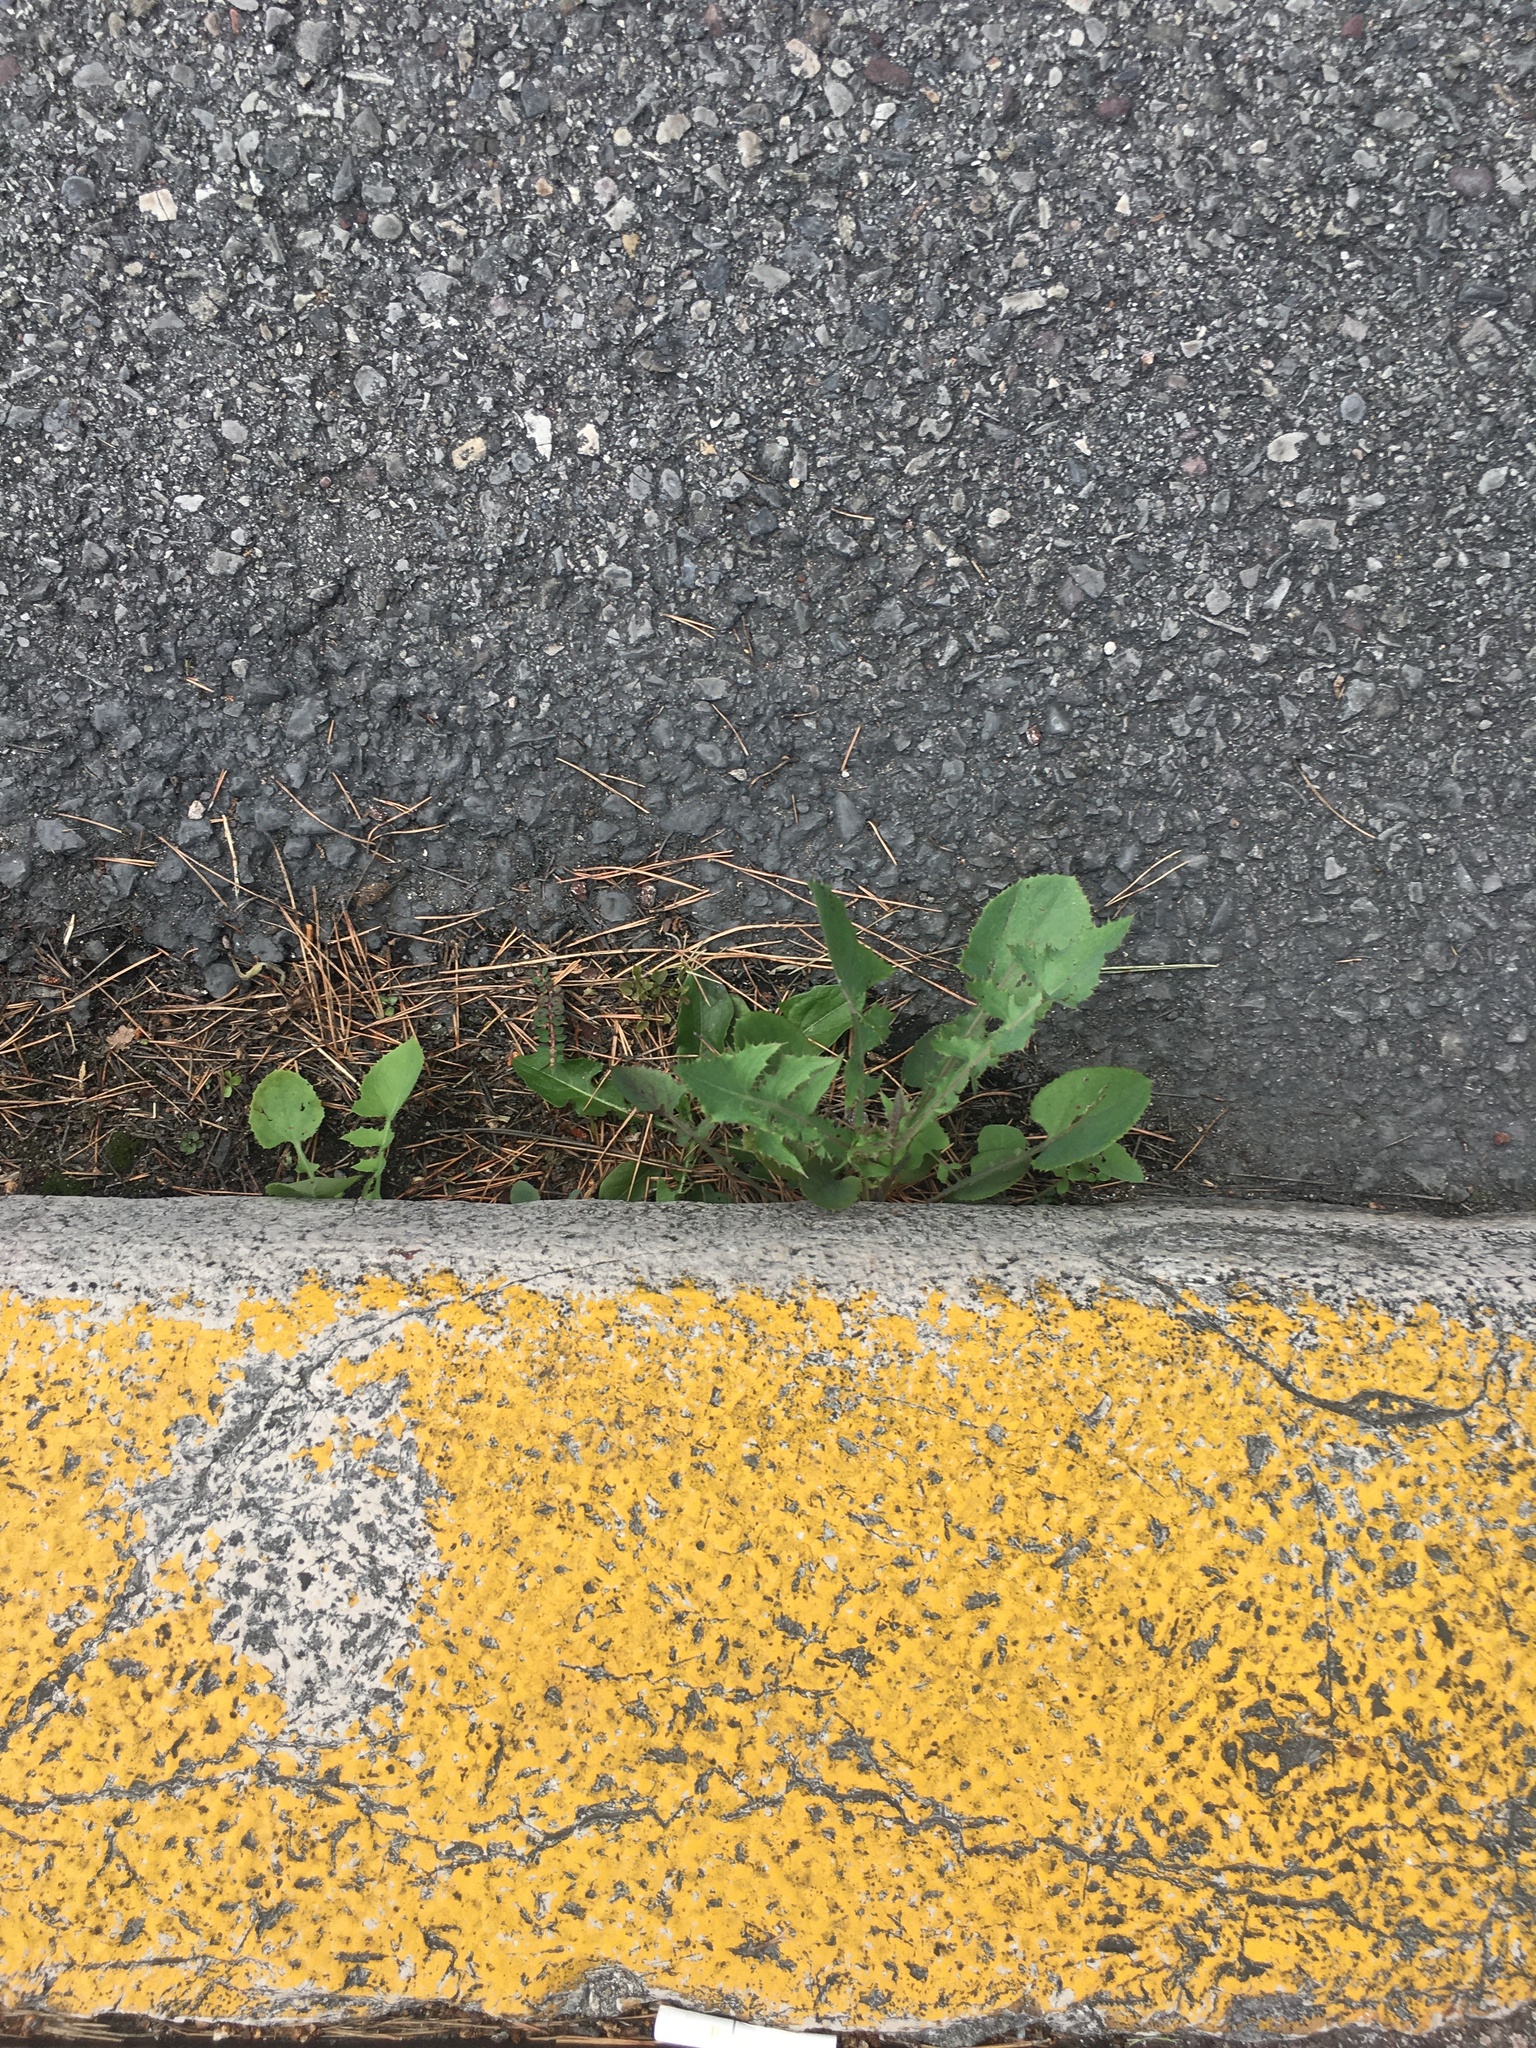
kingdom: Plantae
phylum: Tracheophyta
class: Magnoliopsida
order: Asterales
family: Asteraceae
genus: Sonchus
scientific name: Sonchus oleraceus
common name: Common sowthistle
